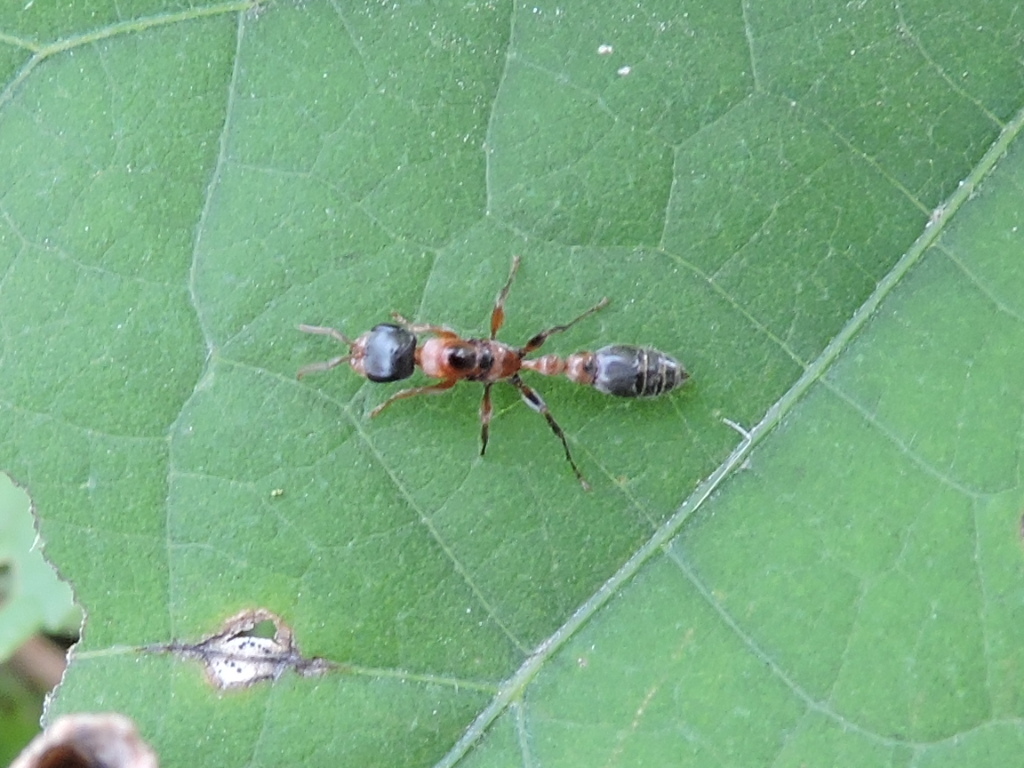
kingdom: Animalia
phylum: Arthropoda
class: Insecta
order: Hymenoptera
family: Formicidae
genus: Pseudomyrmex
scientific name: Pseudomyrmex gracilis
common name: Graceful twig ant
